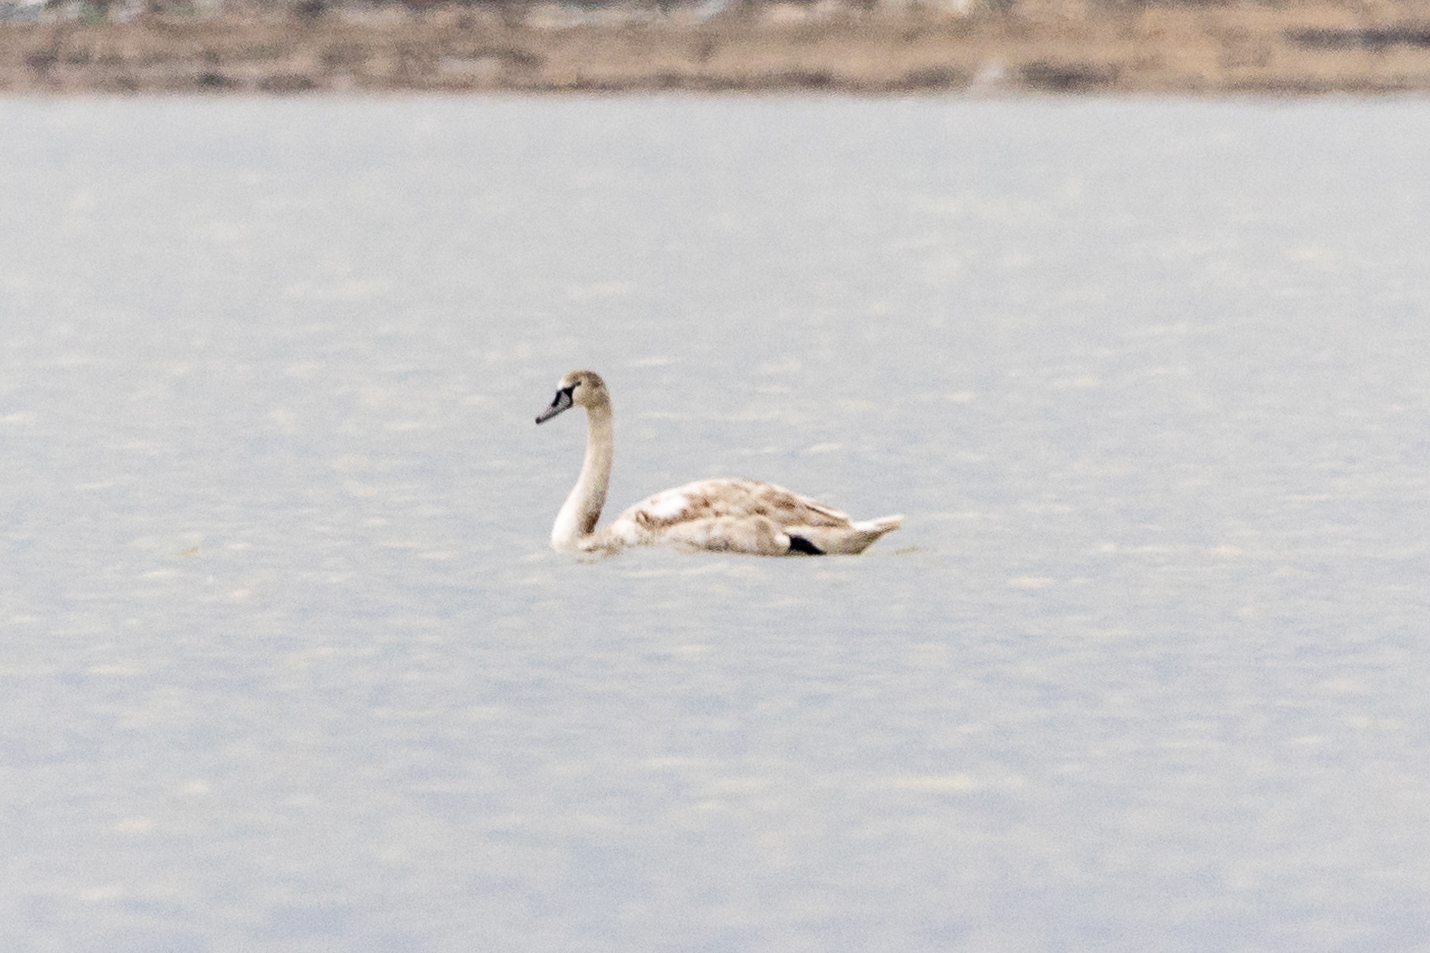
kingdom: Animalia
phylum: Chordata
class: Aves
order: Anseriformes
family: Anatidae
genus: Cygnus
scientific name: Cygnus olor
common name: Mute swan
